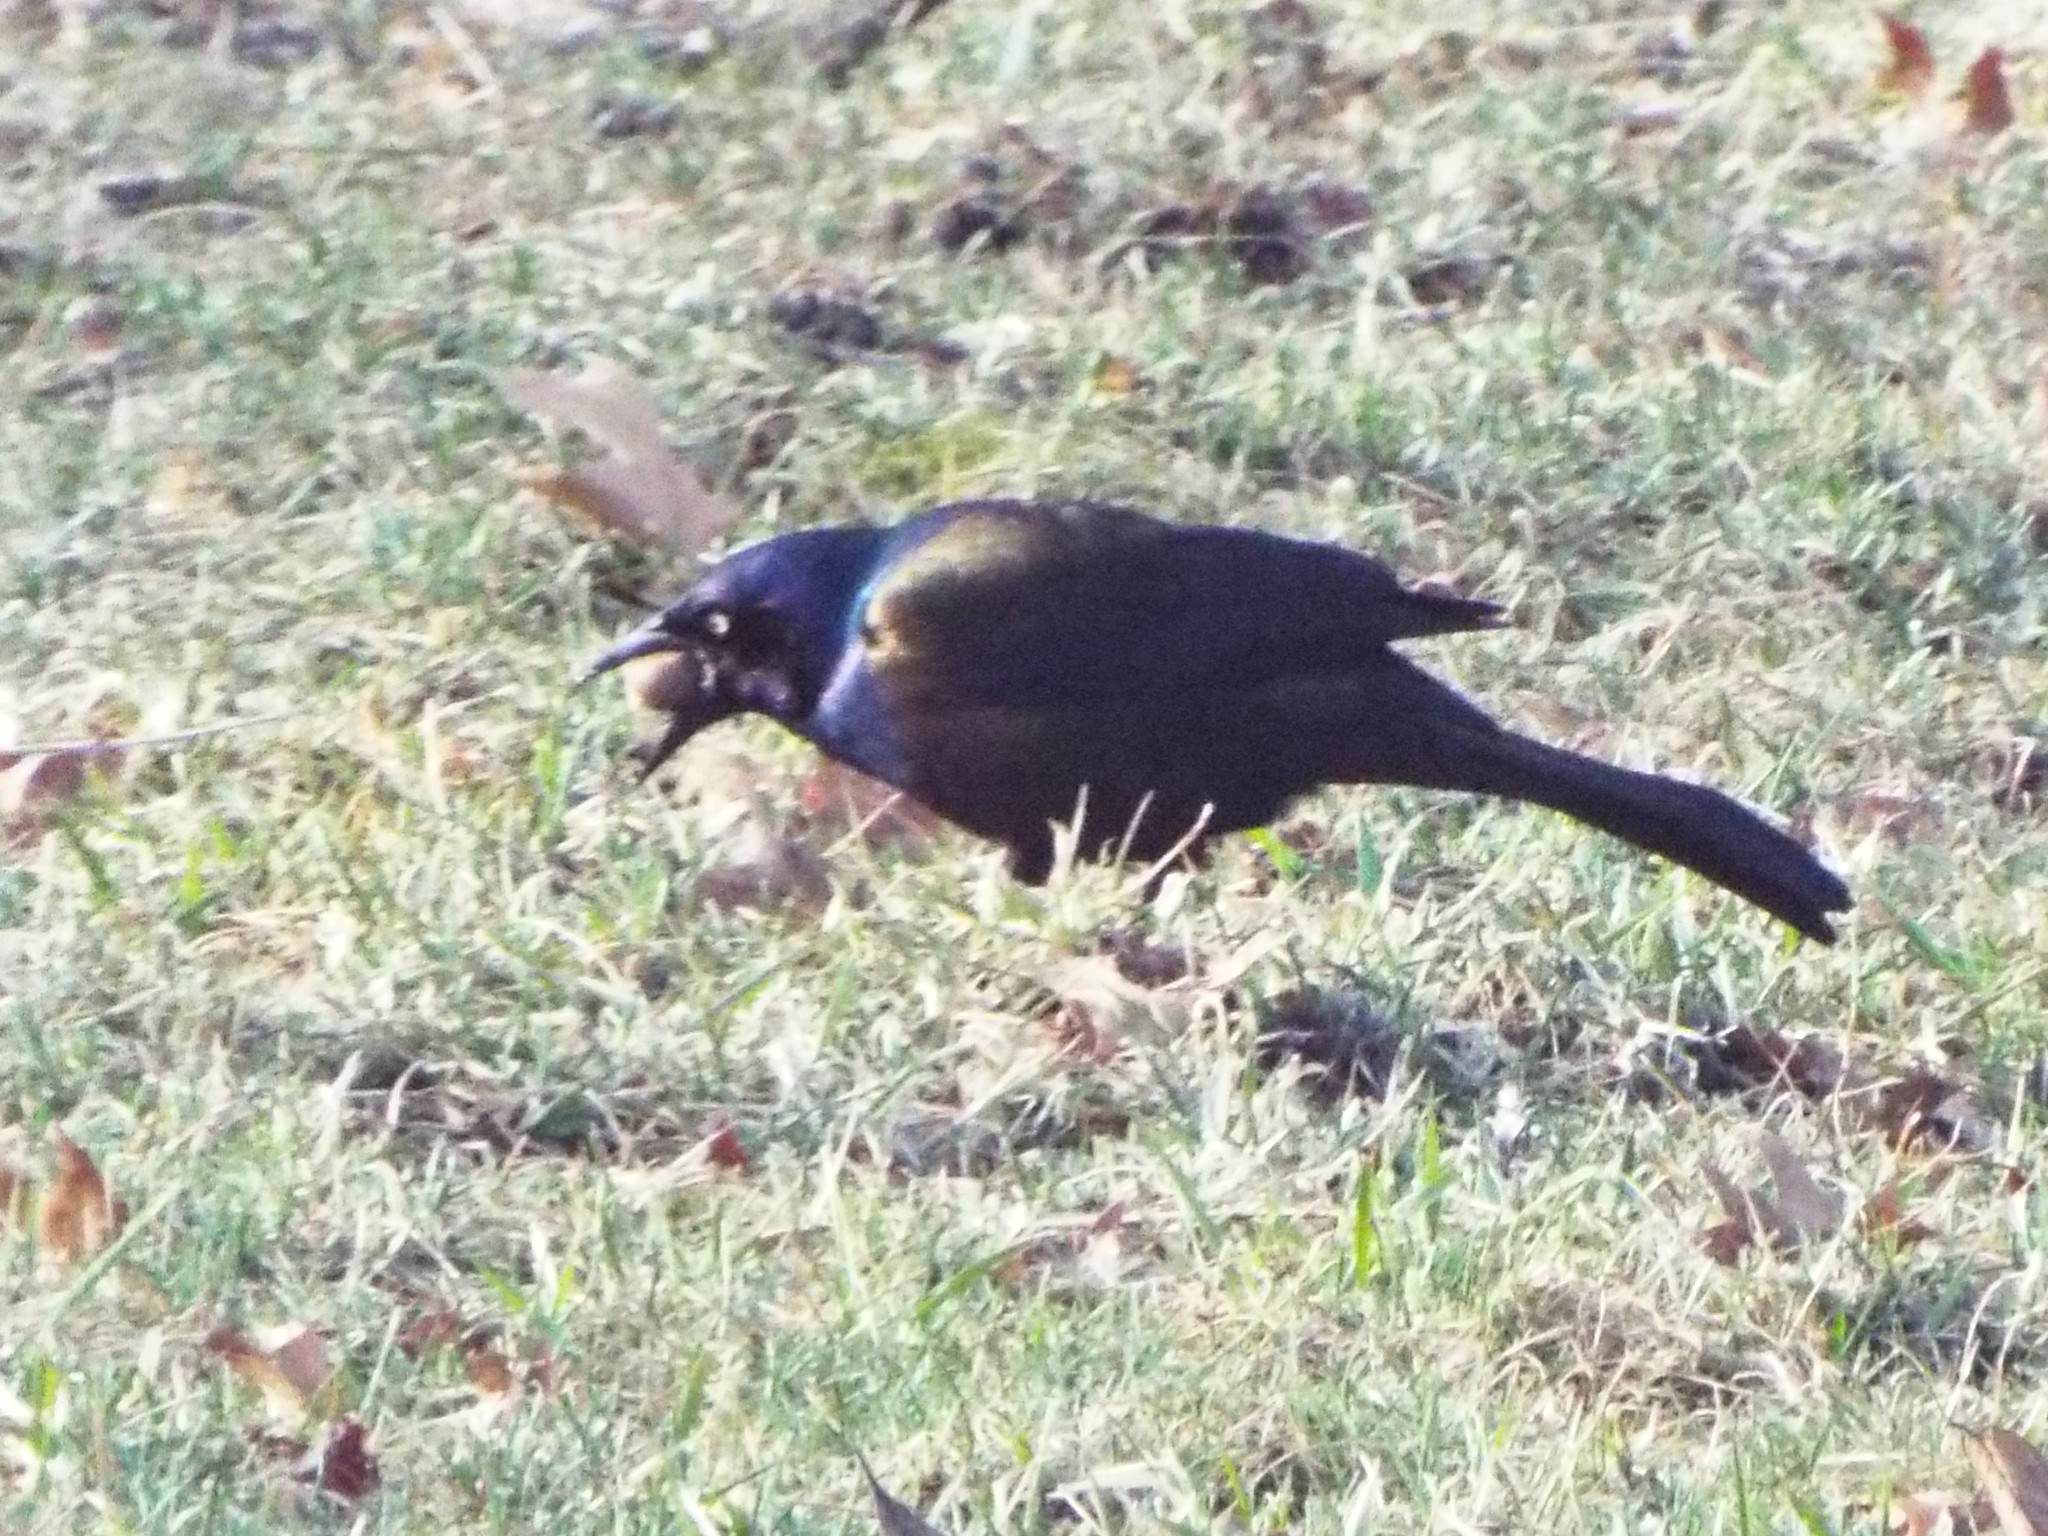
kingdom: Animalia
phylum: Chordata
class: Aves
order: Passeriformes
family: Icteridae
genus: Quiscalus
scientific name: Quiscalus quiscula
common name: Common grackle
